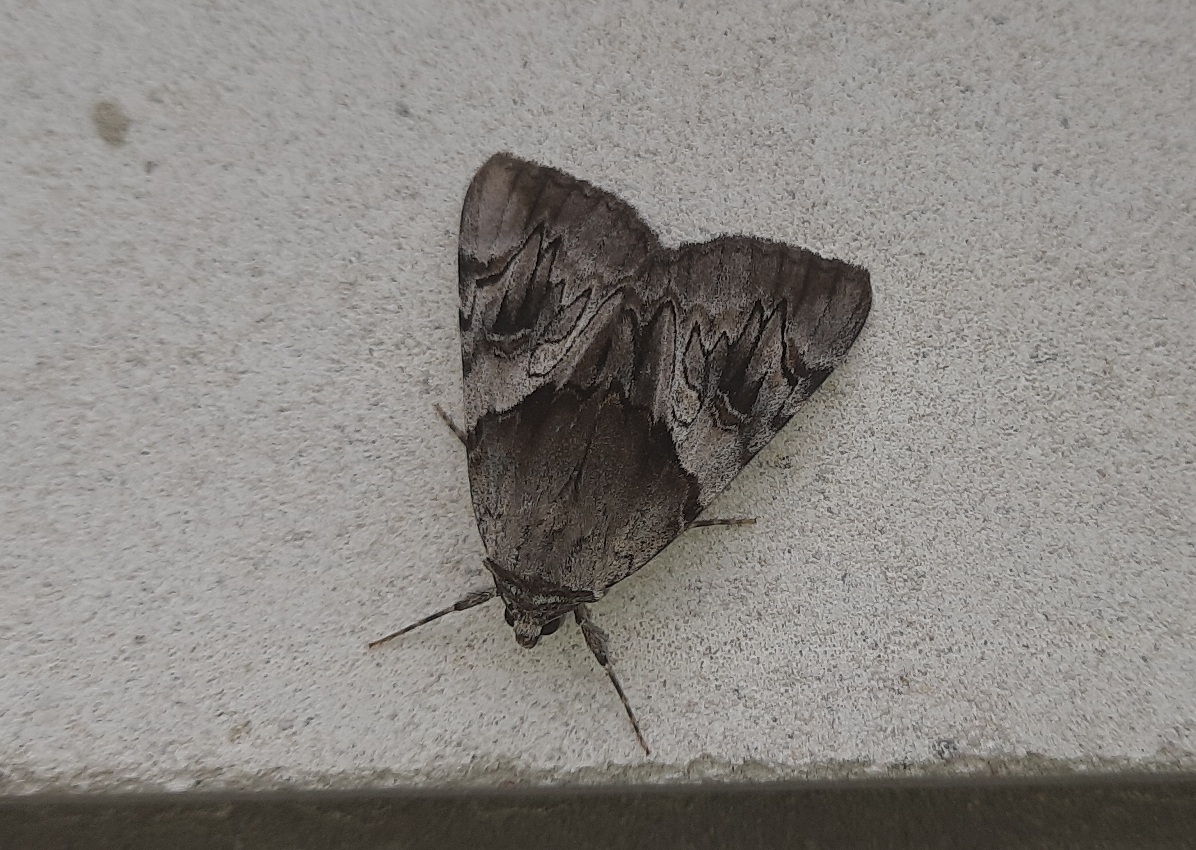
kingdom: Animalia
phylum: Arthropoda
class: Insecta
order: Lepidoptera
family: Erebidae
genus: Catocala
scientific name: Catocala fulminea
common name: Yellow bands underwing
